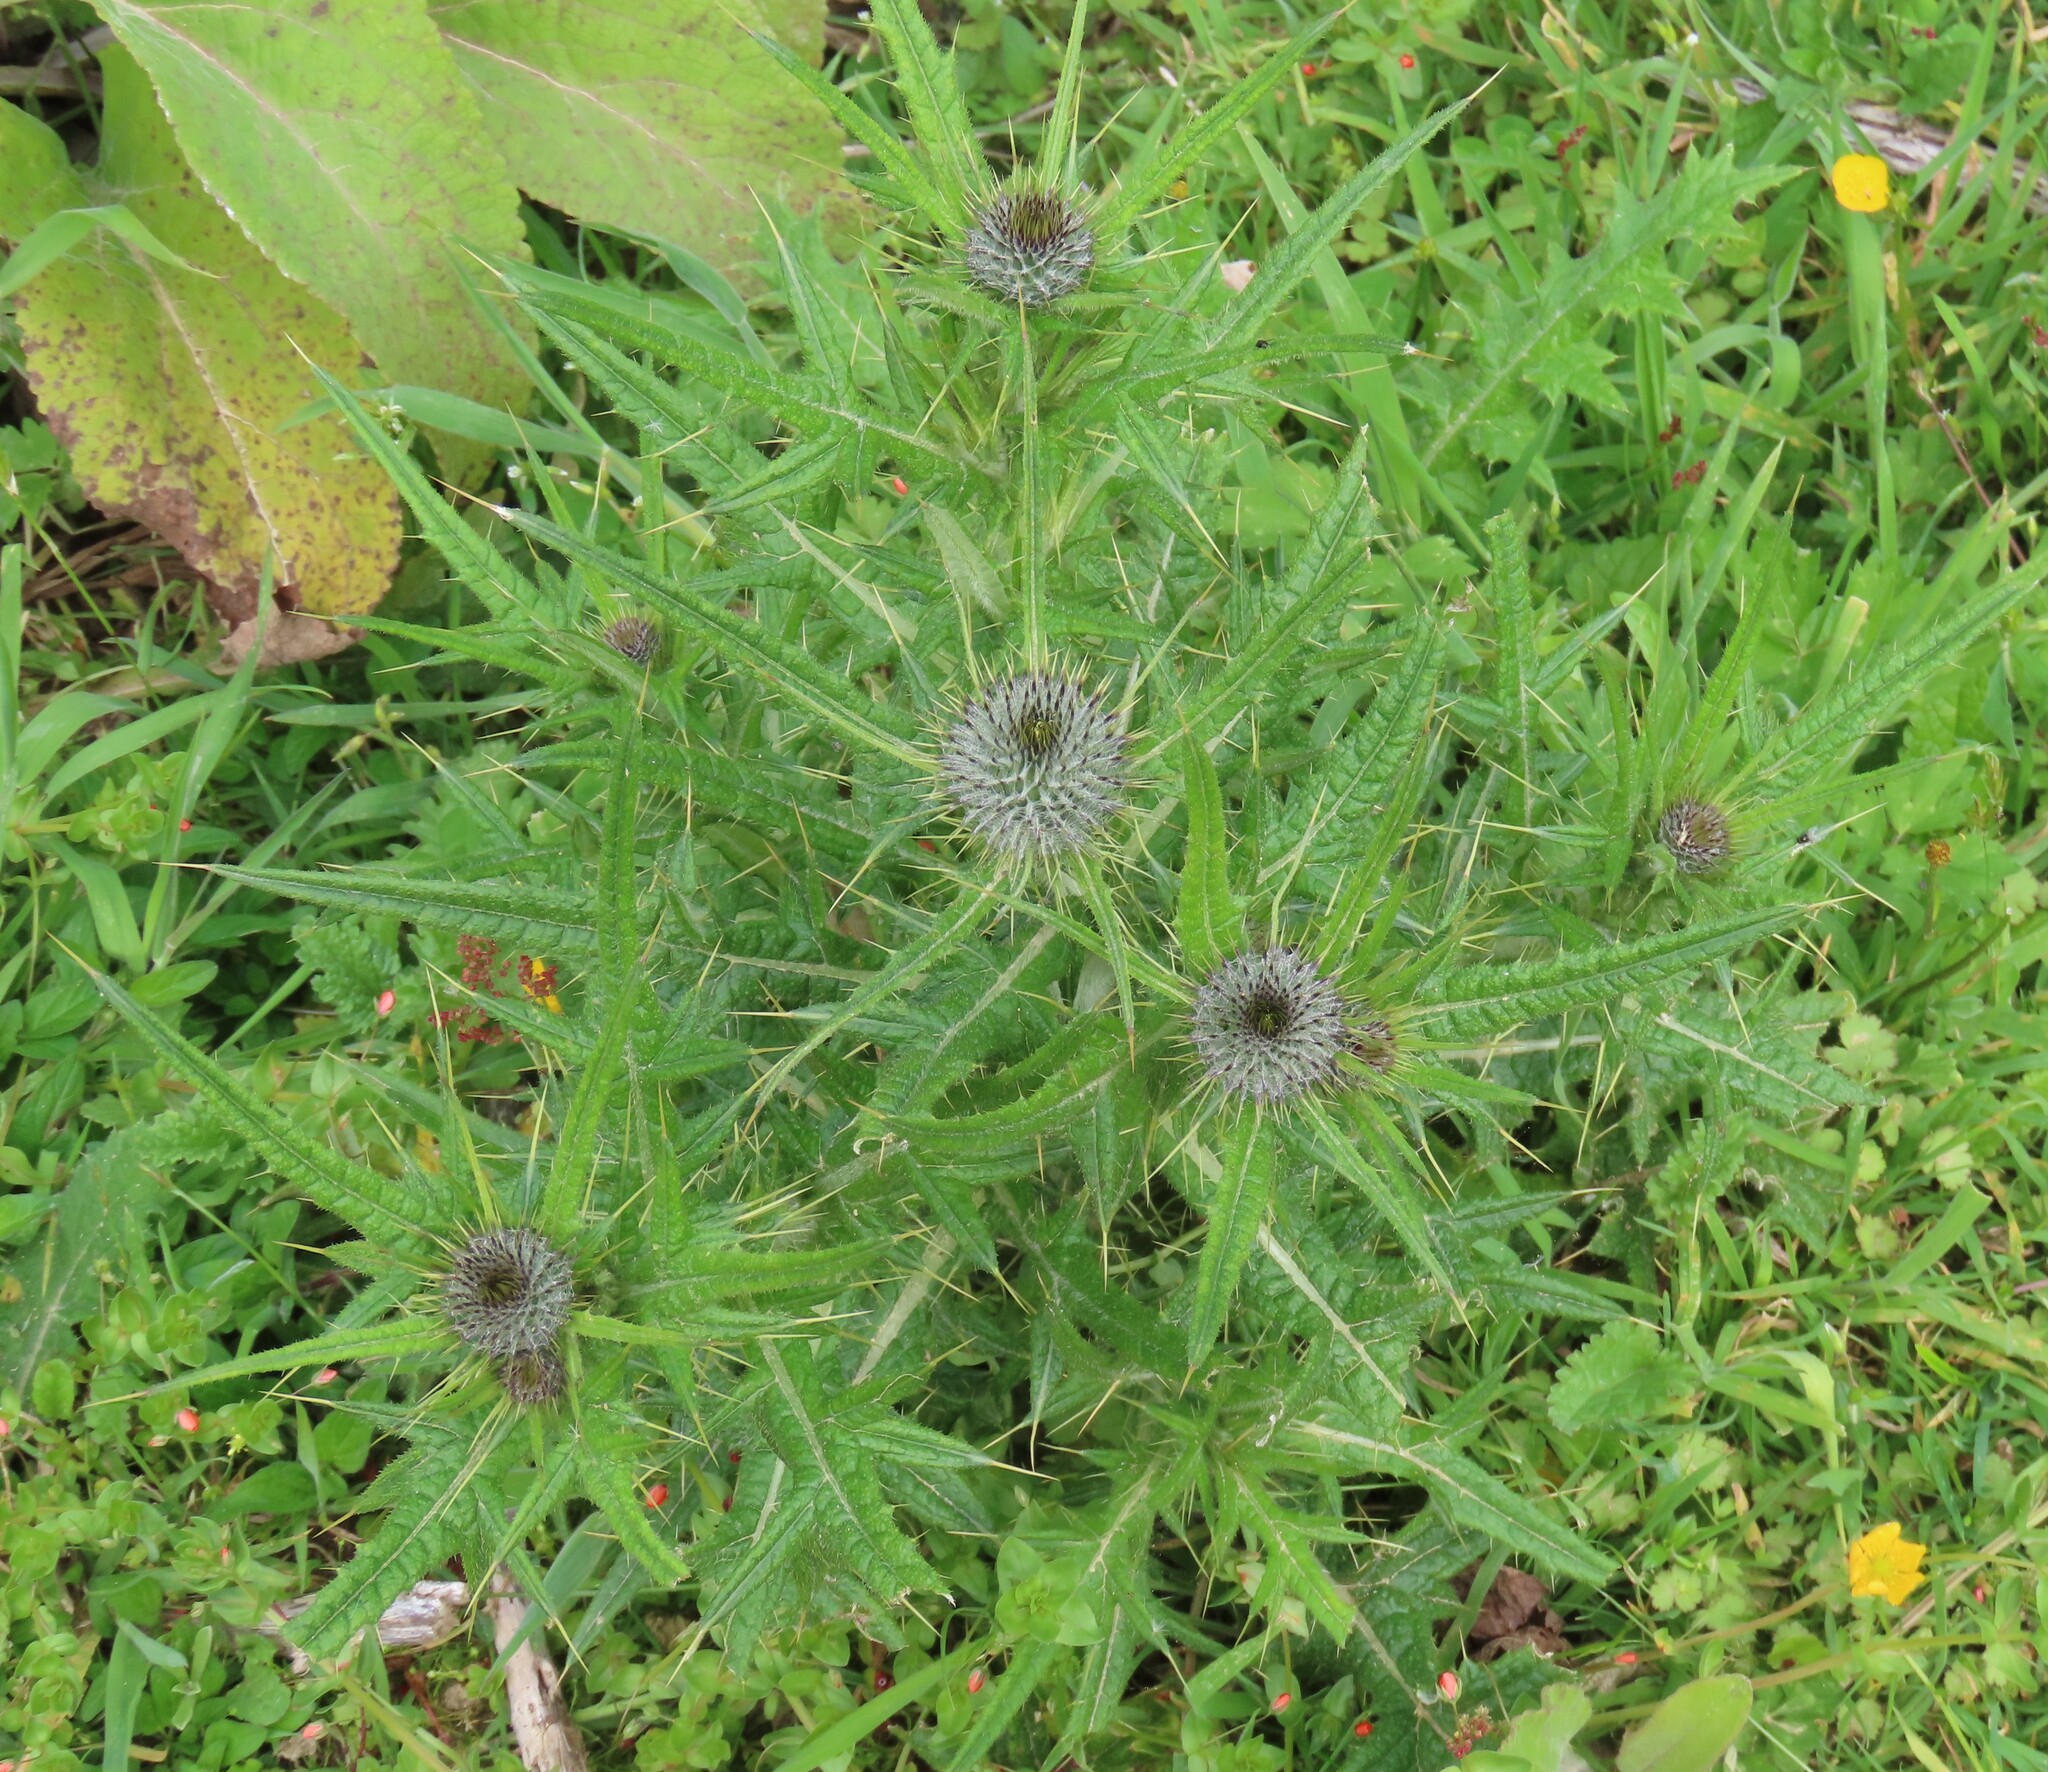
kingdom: Plantae
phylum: Tracheophyta
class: Magnoliopsida
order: Asterales
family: Asteraceae
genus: Cirsium
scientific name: Cirsium vulgare
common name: Bull thistle
